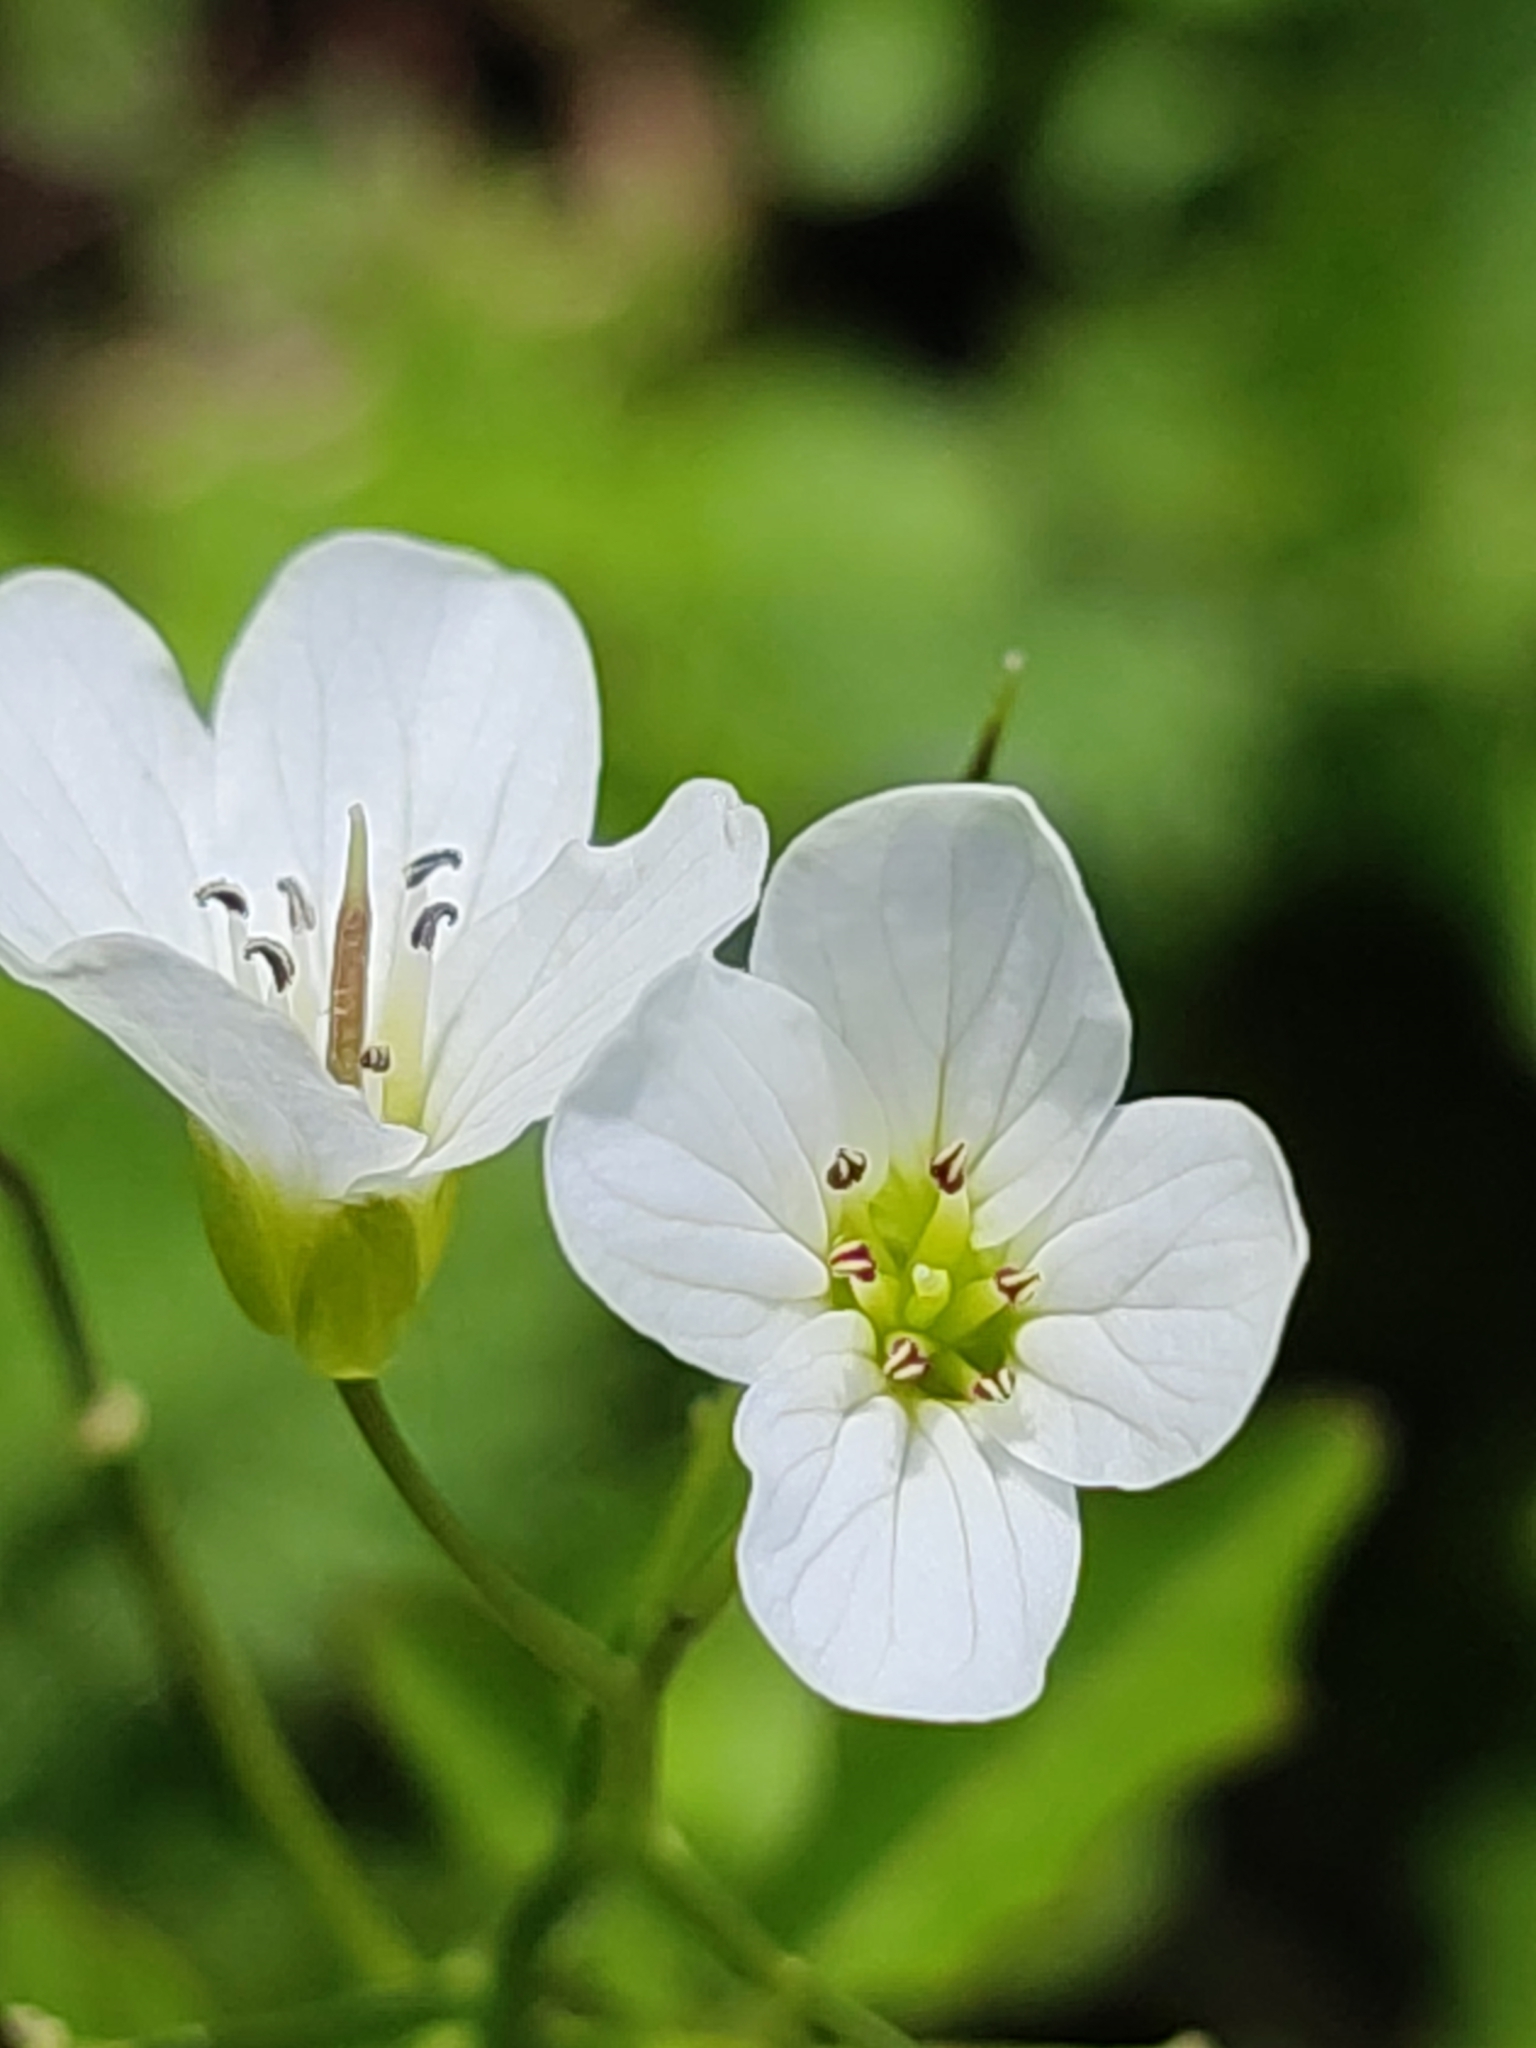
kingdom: Plantae
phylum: Tracheophyta
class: Magnoliopsida
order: Brassicales
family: Brassicaceae
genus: Cardamine
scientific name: Cardamine amara
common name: Large bitter-cress
